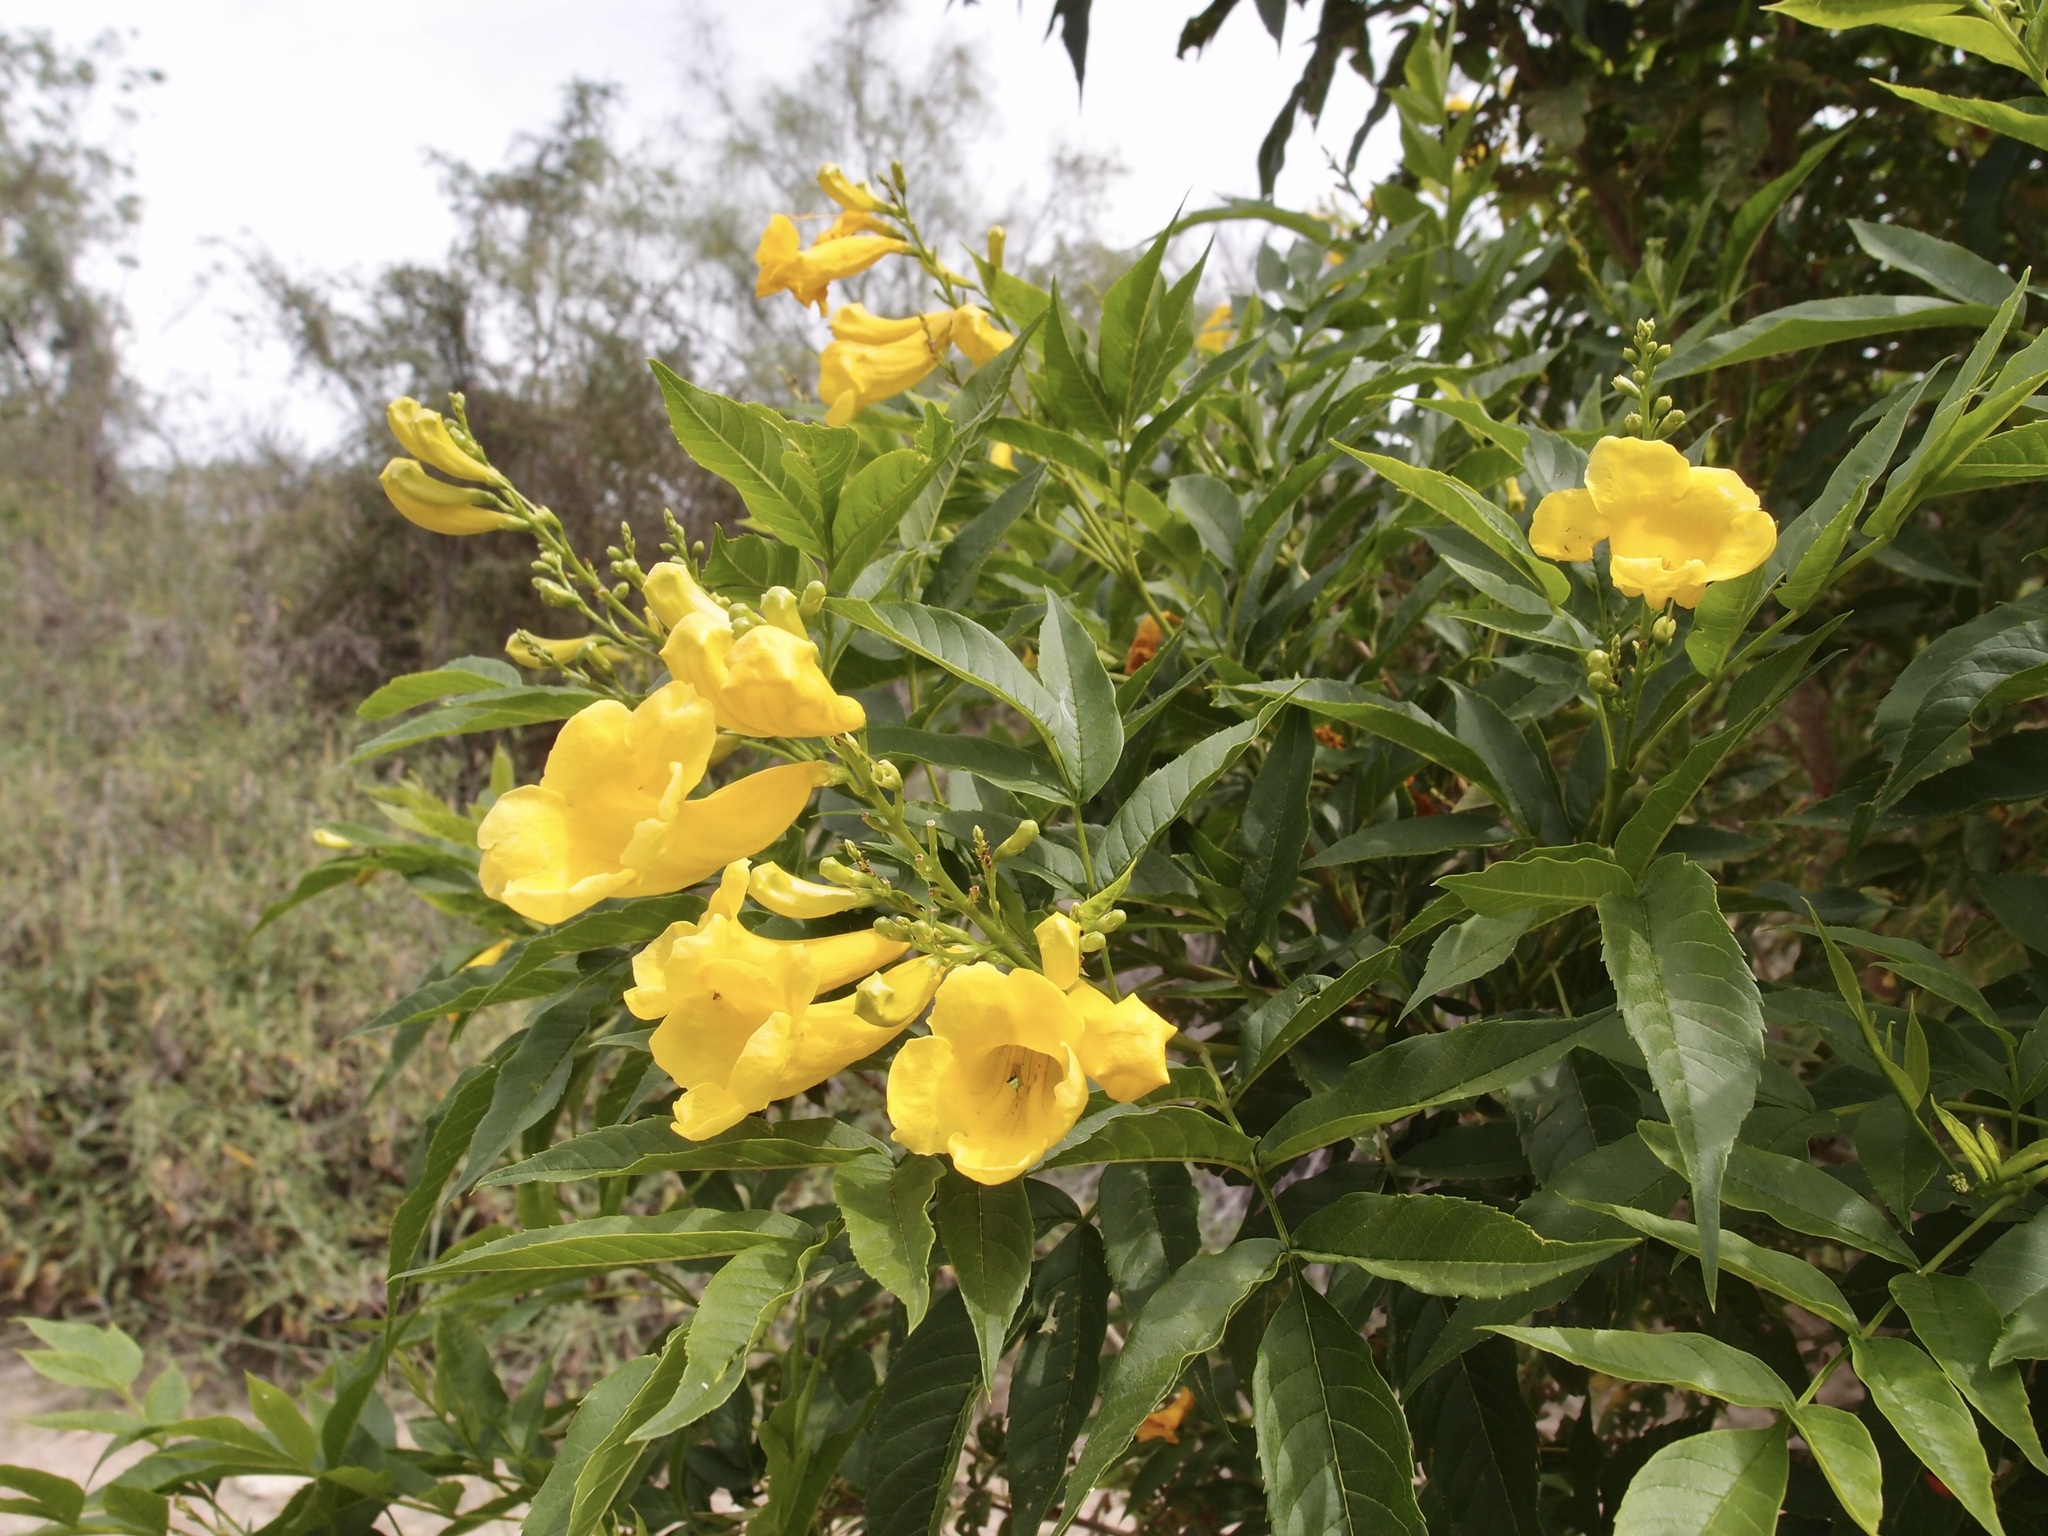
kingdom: Plantae
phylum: Tracheophyta
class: Magnoliopsida
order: Lamiales
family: Bignoniaceae
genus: Tecoma
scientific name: Tecoma stans
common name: Yellow trumpetbush
